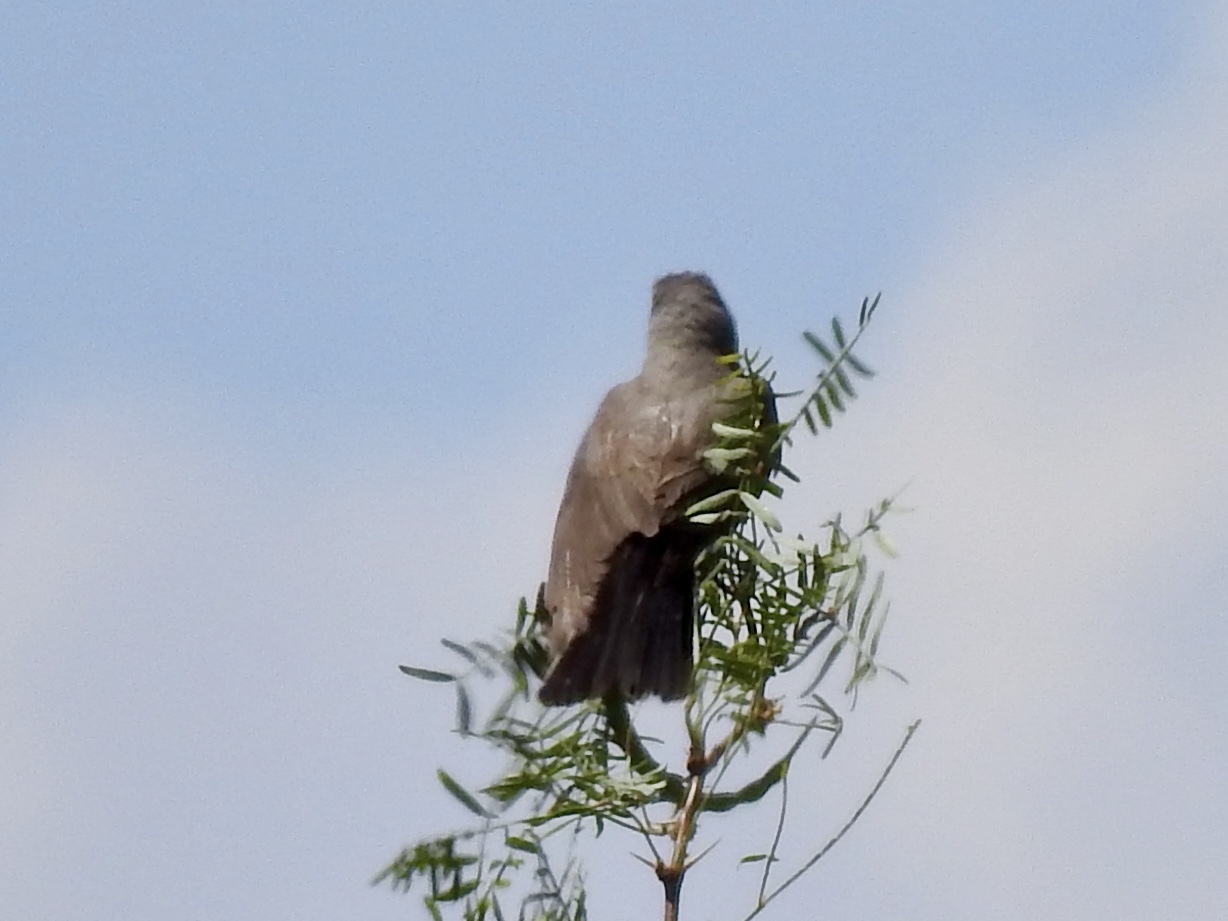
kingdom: Animalia
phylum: Chordata
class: Aves
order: Passeriformes
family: Tyrannidae
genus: Tyrannus
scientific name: Tyrannus verticalis
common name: Western kingbird
